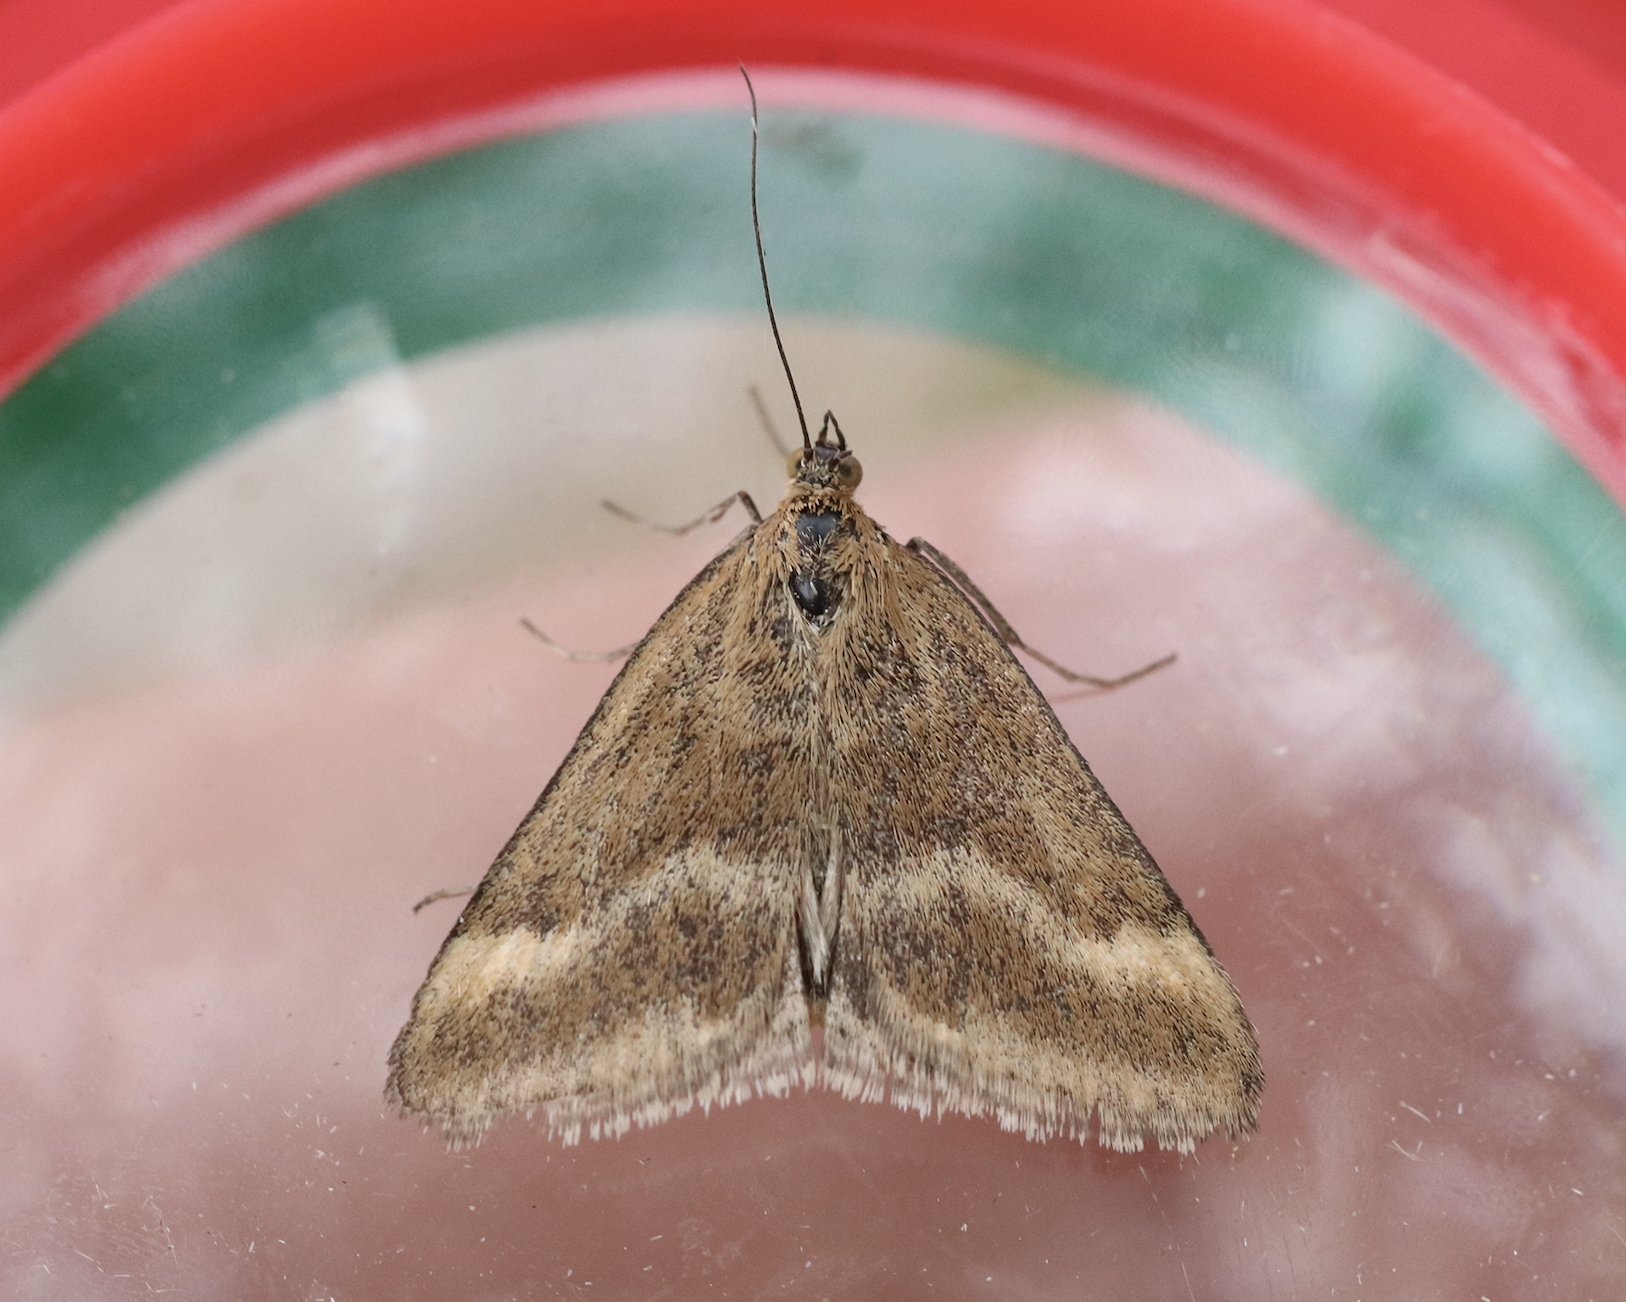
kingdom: Animalia
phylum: Arthropoda
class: Insecta
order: Lepidoptera
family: Crambidae
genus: Pyrausta
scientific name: Pyrausta aerealis
